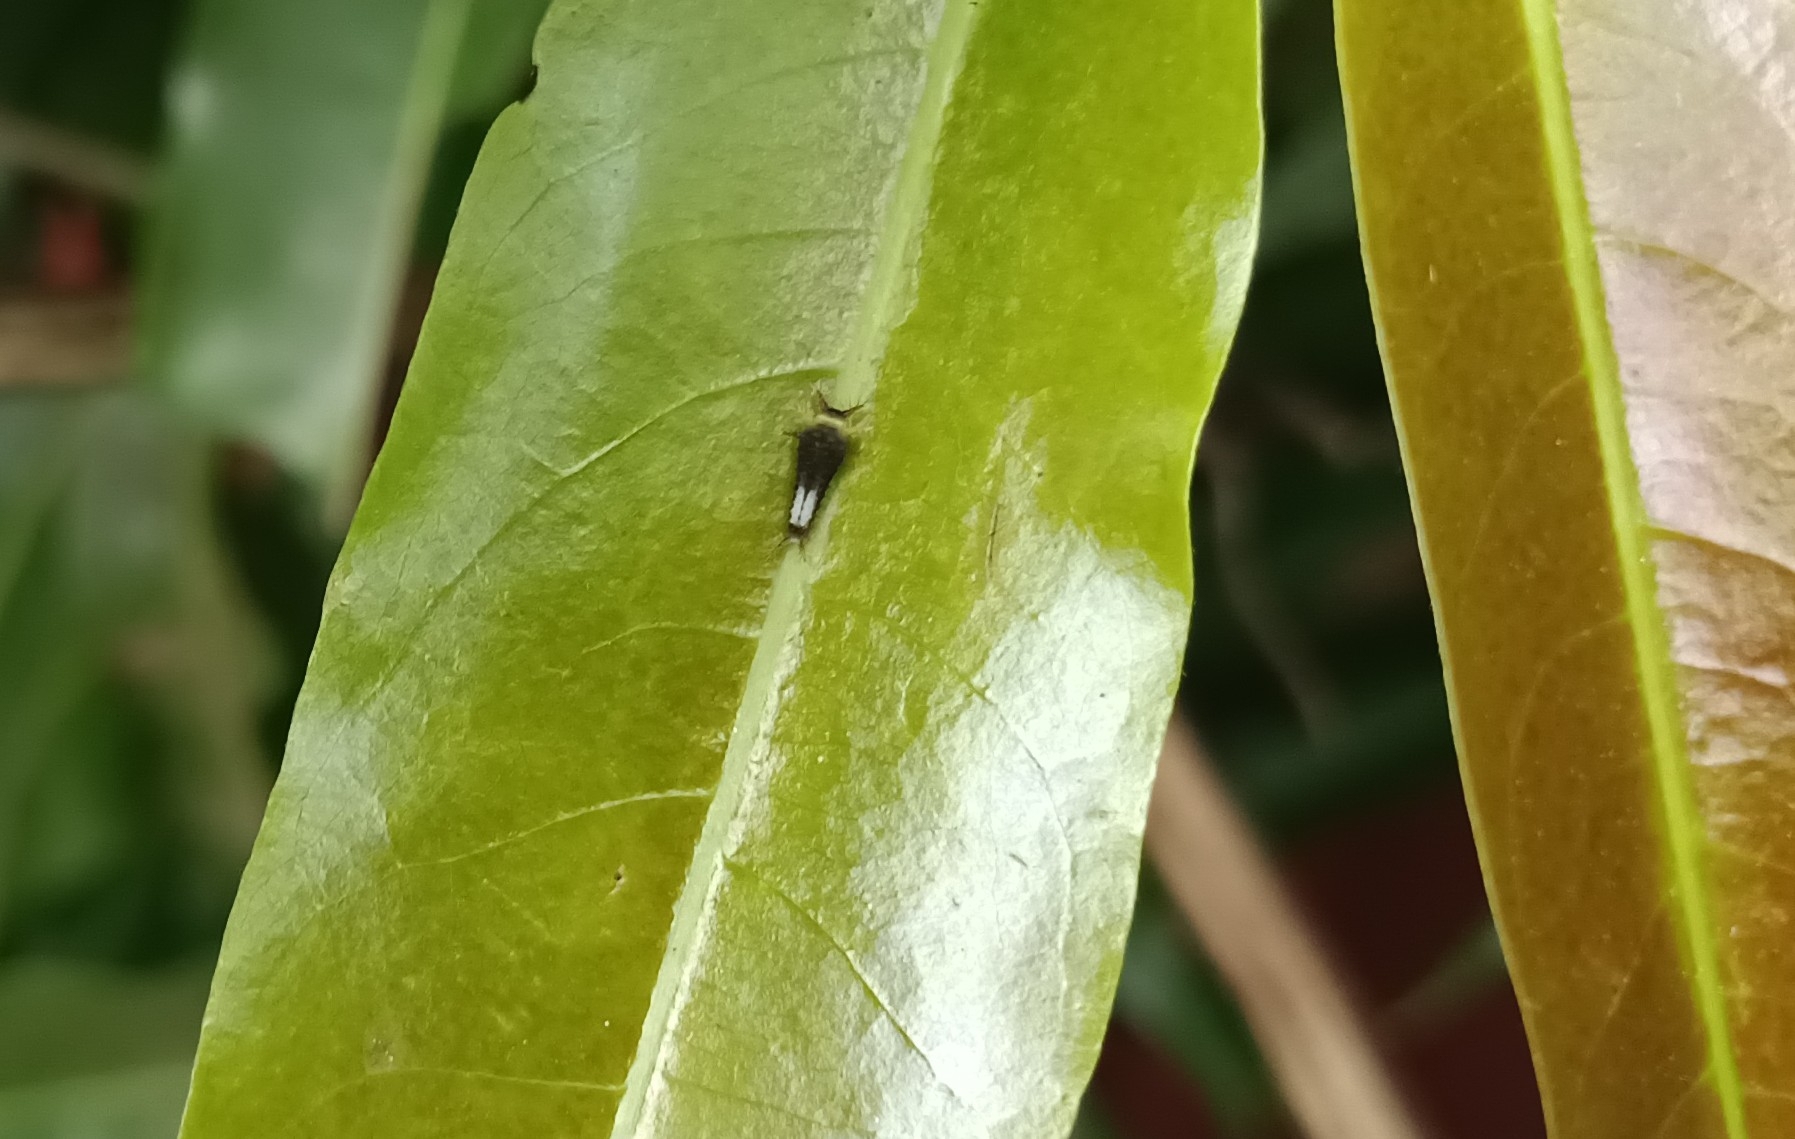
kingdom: Animalia
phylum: Arthropoda
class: Insecta
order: Lepidoptera
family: Papilionidae
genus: Graphium
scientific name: Graphium agamemnon
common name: Tailed jay
